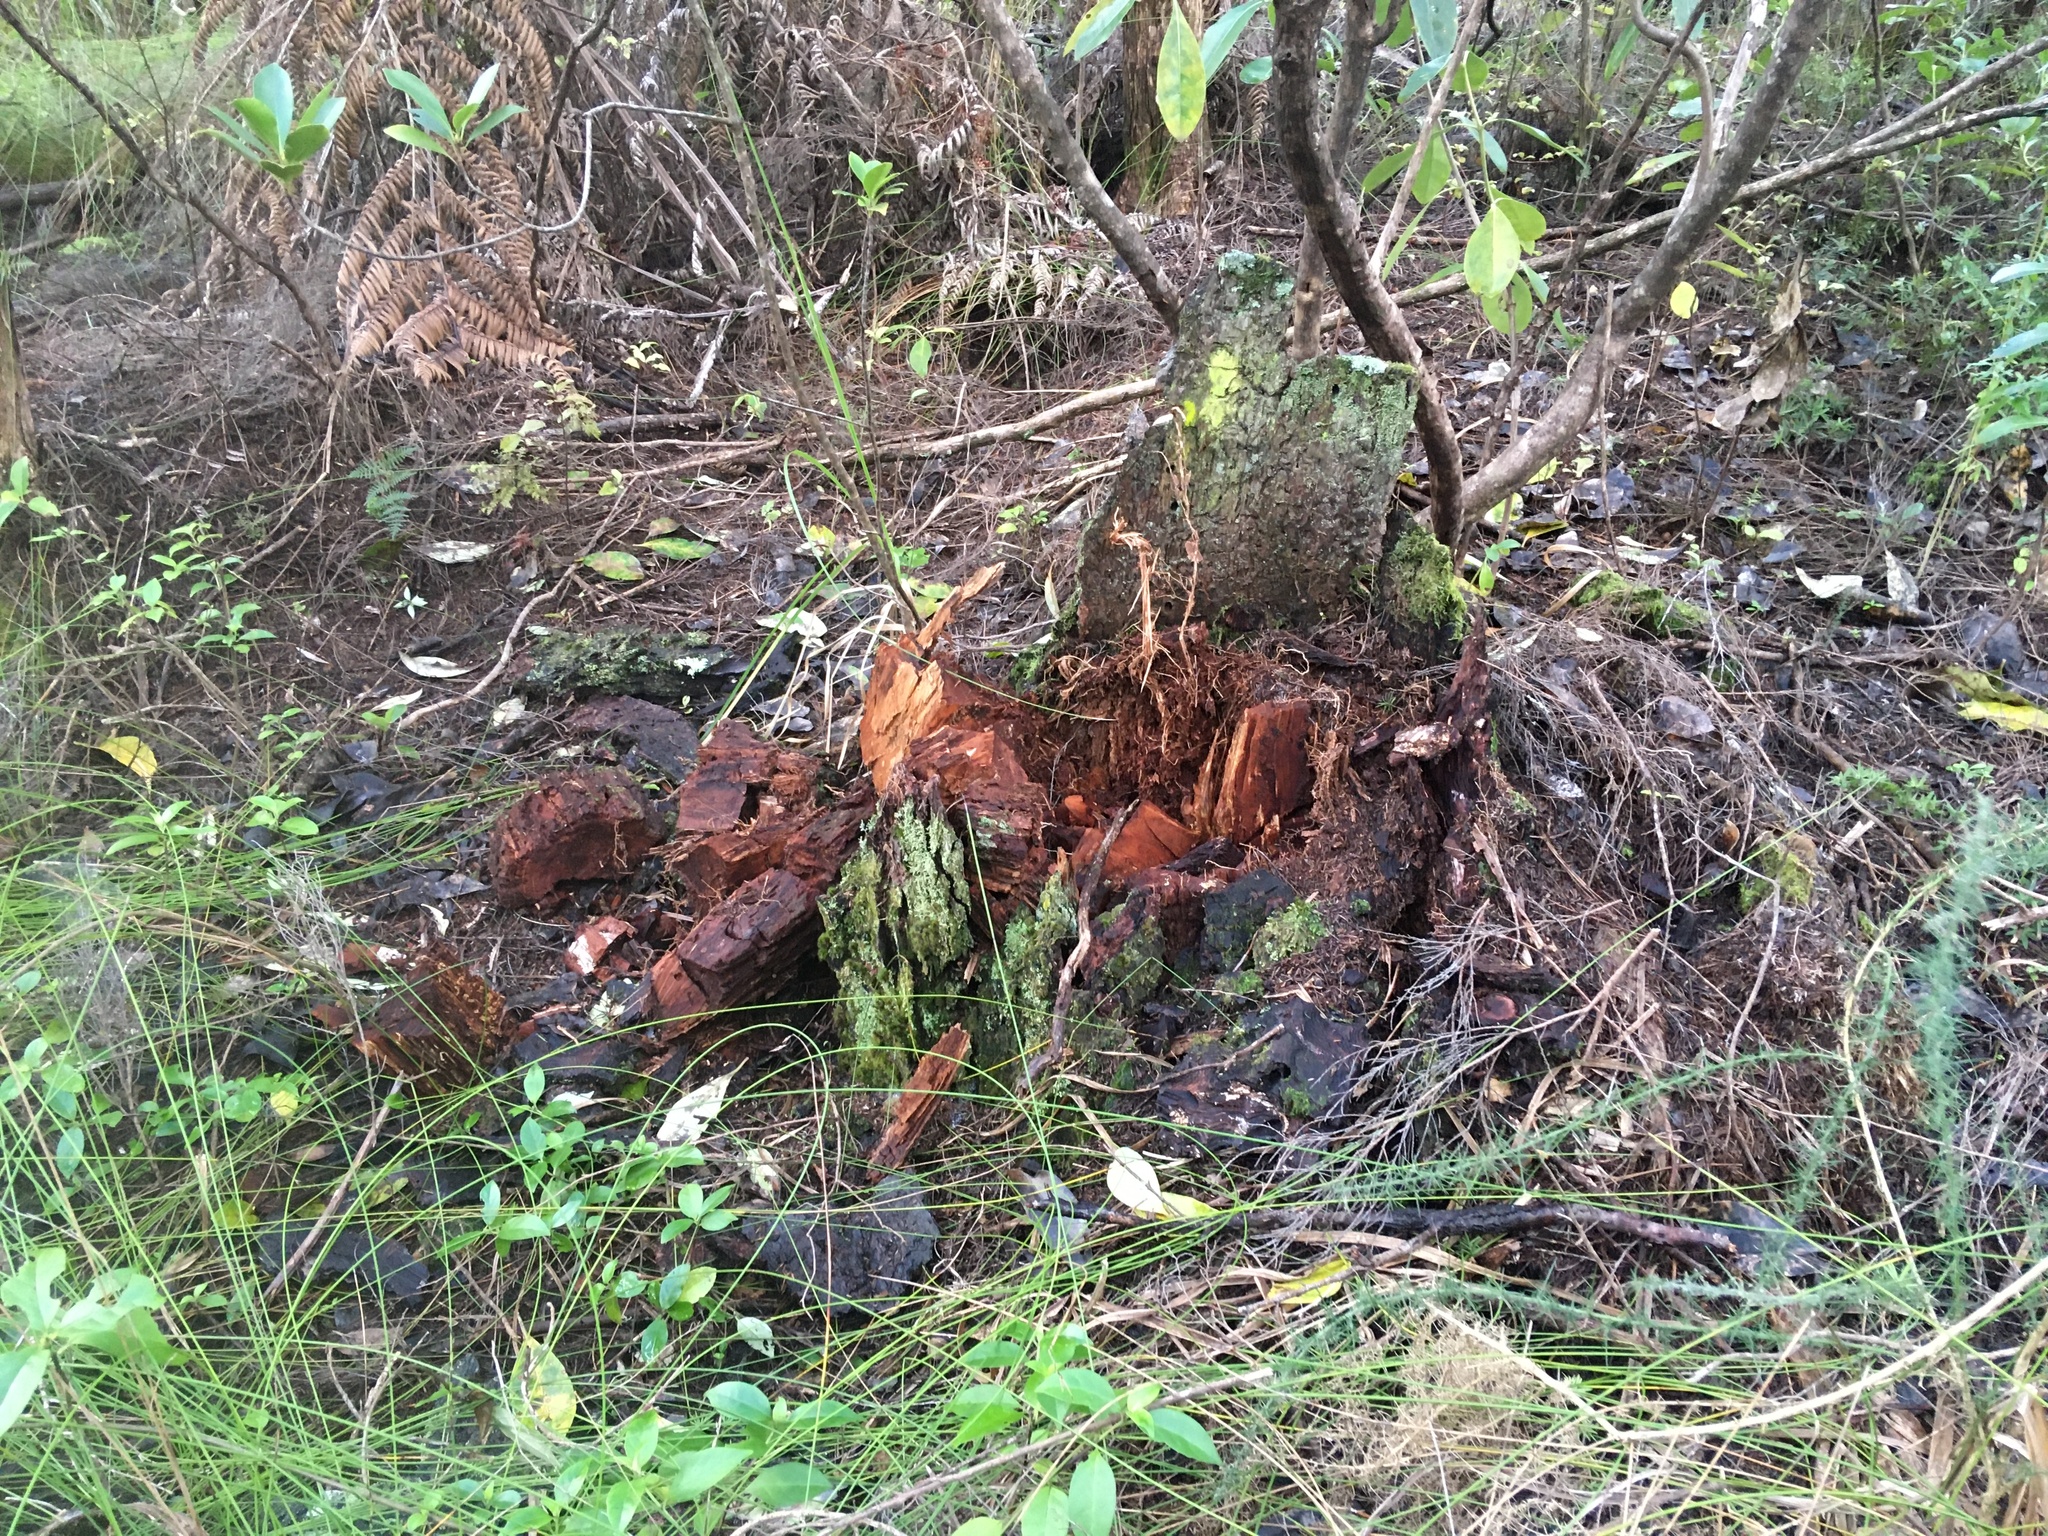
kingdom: Plantae
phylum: Tracheophyta
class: Liliopsida
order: Poales
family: Cyperaceae
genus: Schoenus
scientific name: Schoenus tendo
